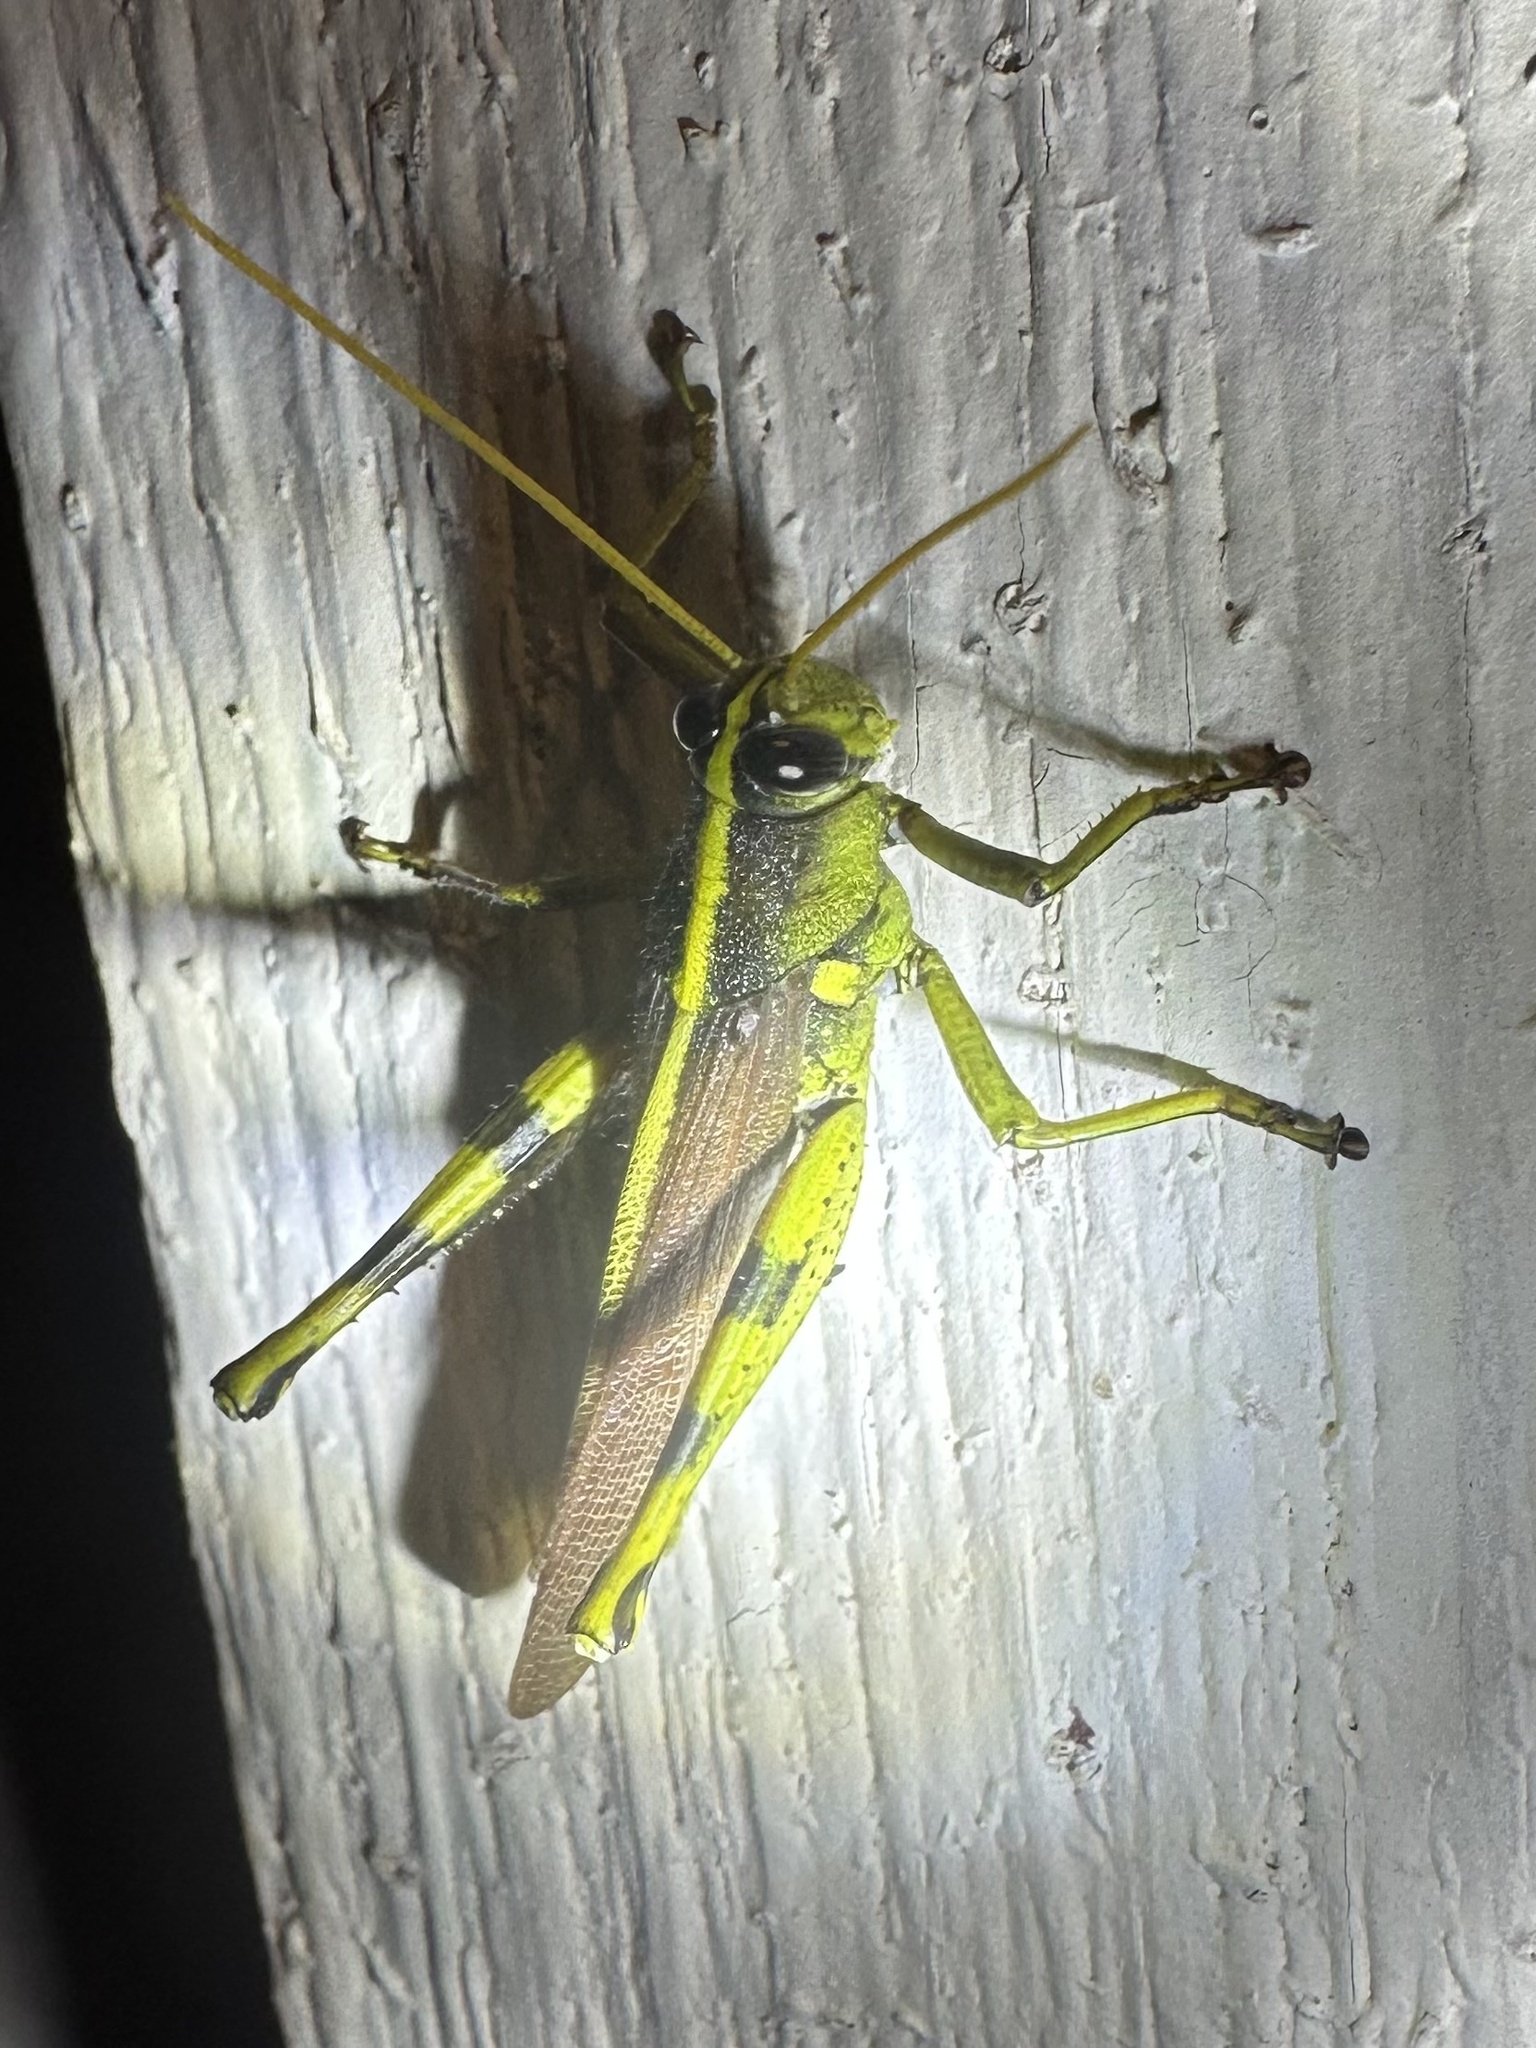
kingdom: Animalia
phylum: Arthropoda
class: Insecta
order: Orthoptera
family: Acrididae
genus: Schistocerca
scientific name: Schistocerca obscura
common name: Obscure bird grasshopper
